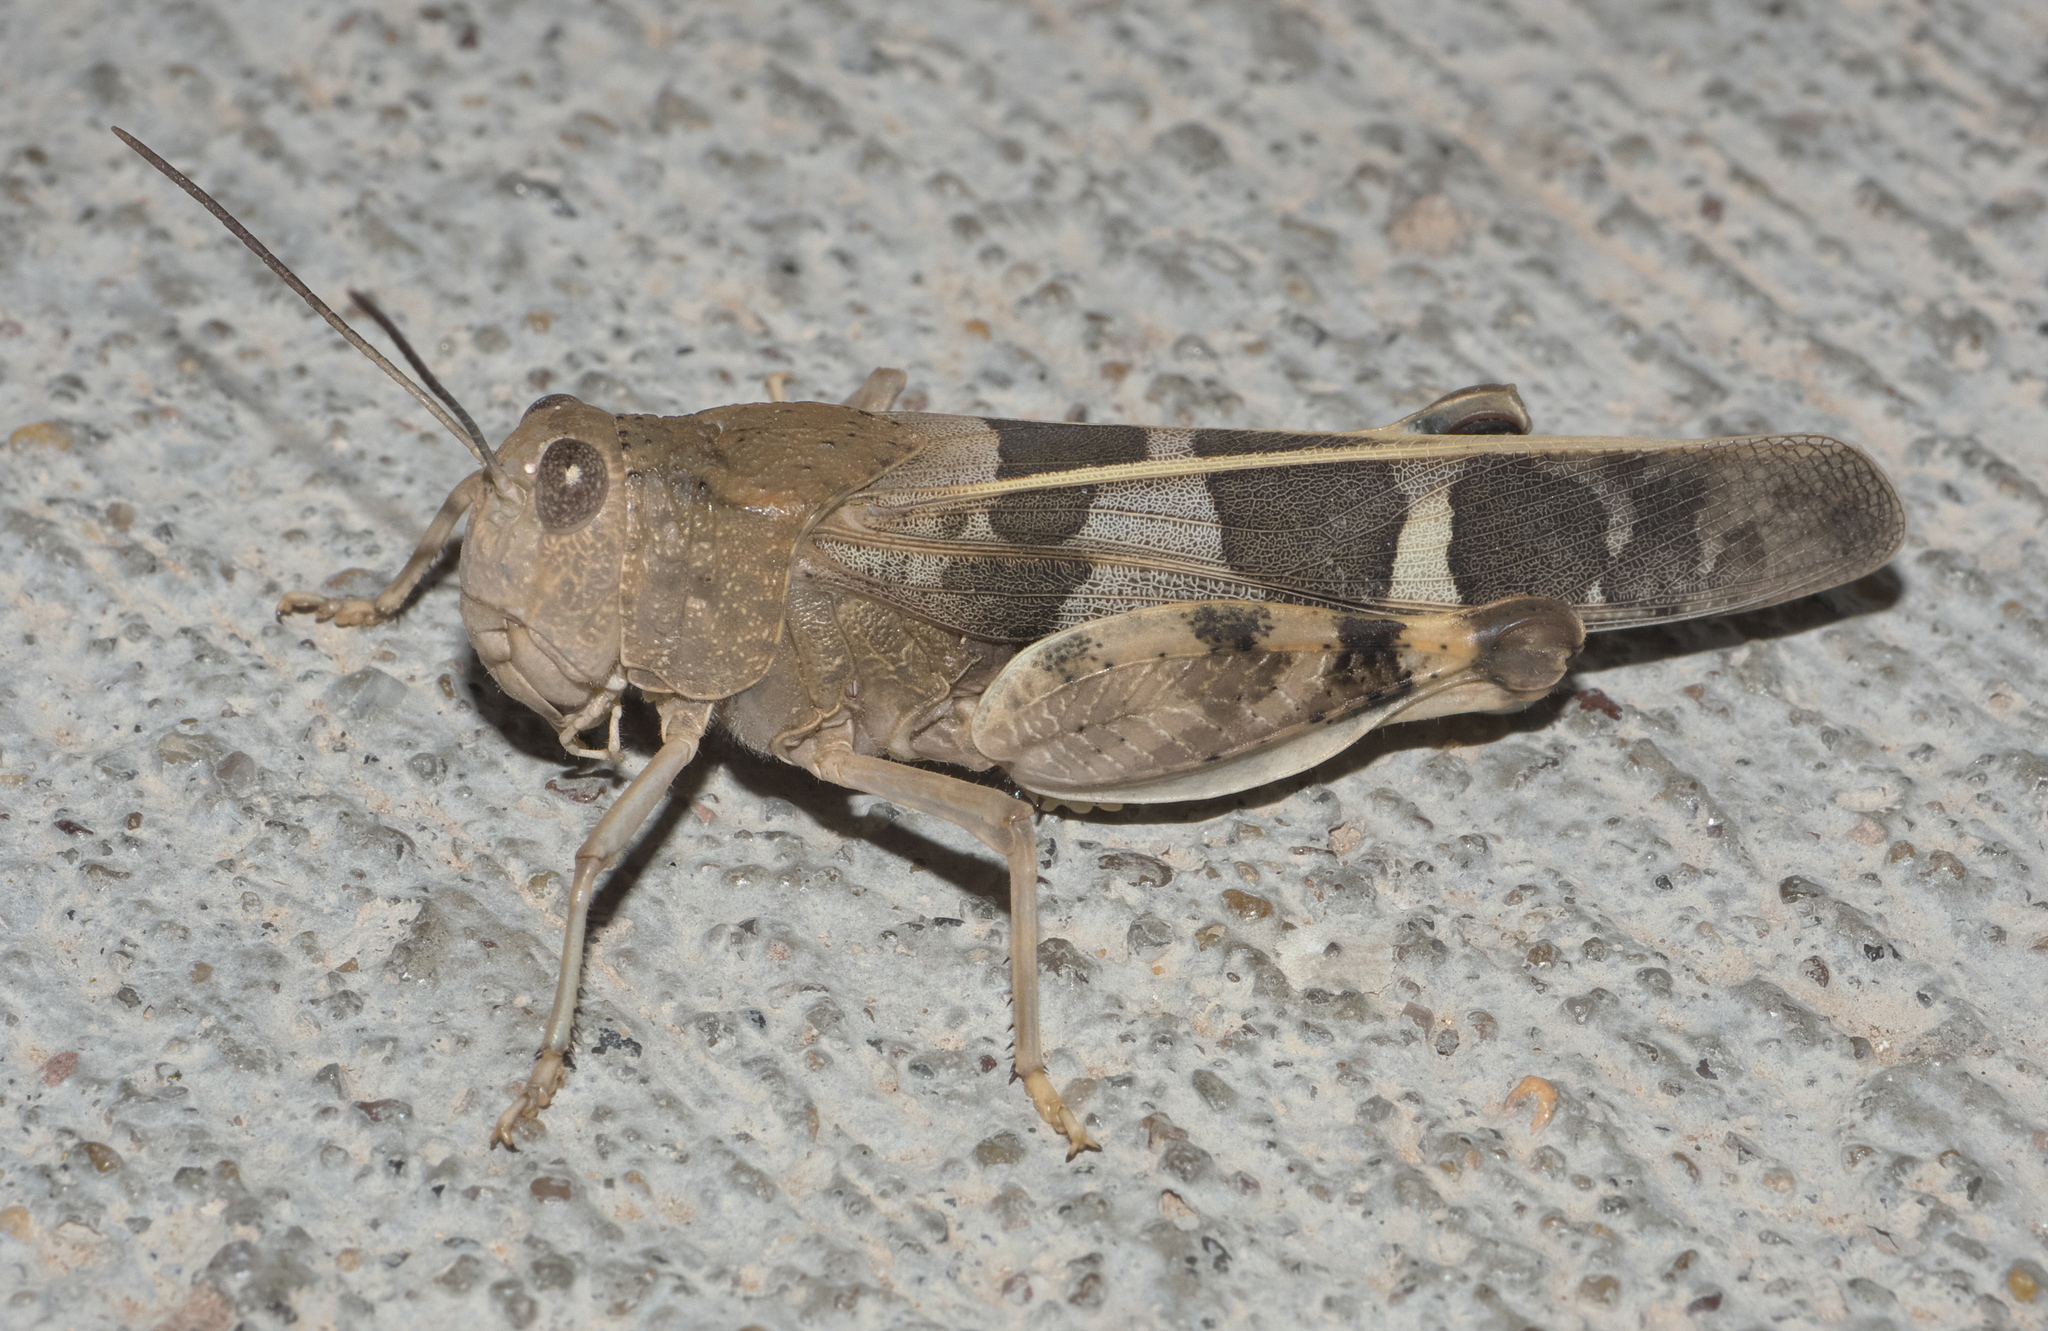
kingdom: Animalia
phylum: Arthropoda
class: Insecta
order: Orthoptera
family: Acrididae
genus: Leprus
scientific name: Leprus wheelerii
